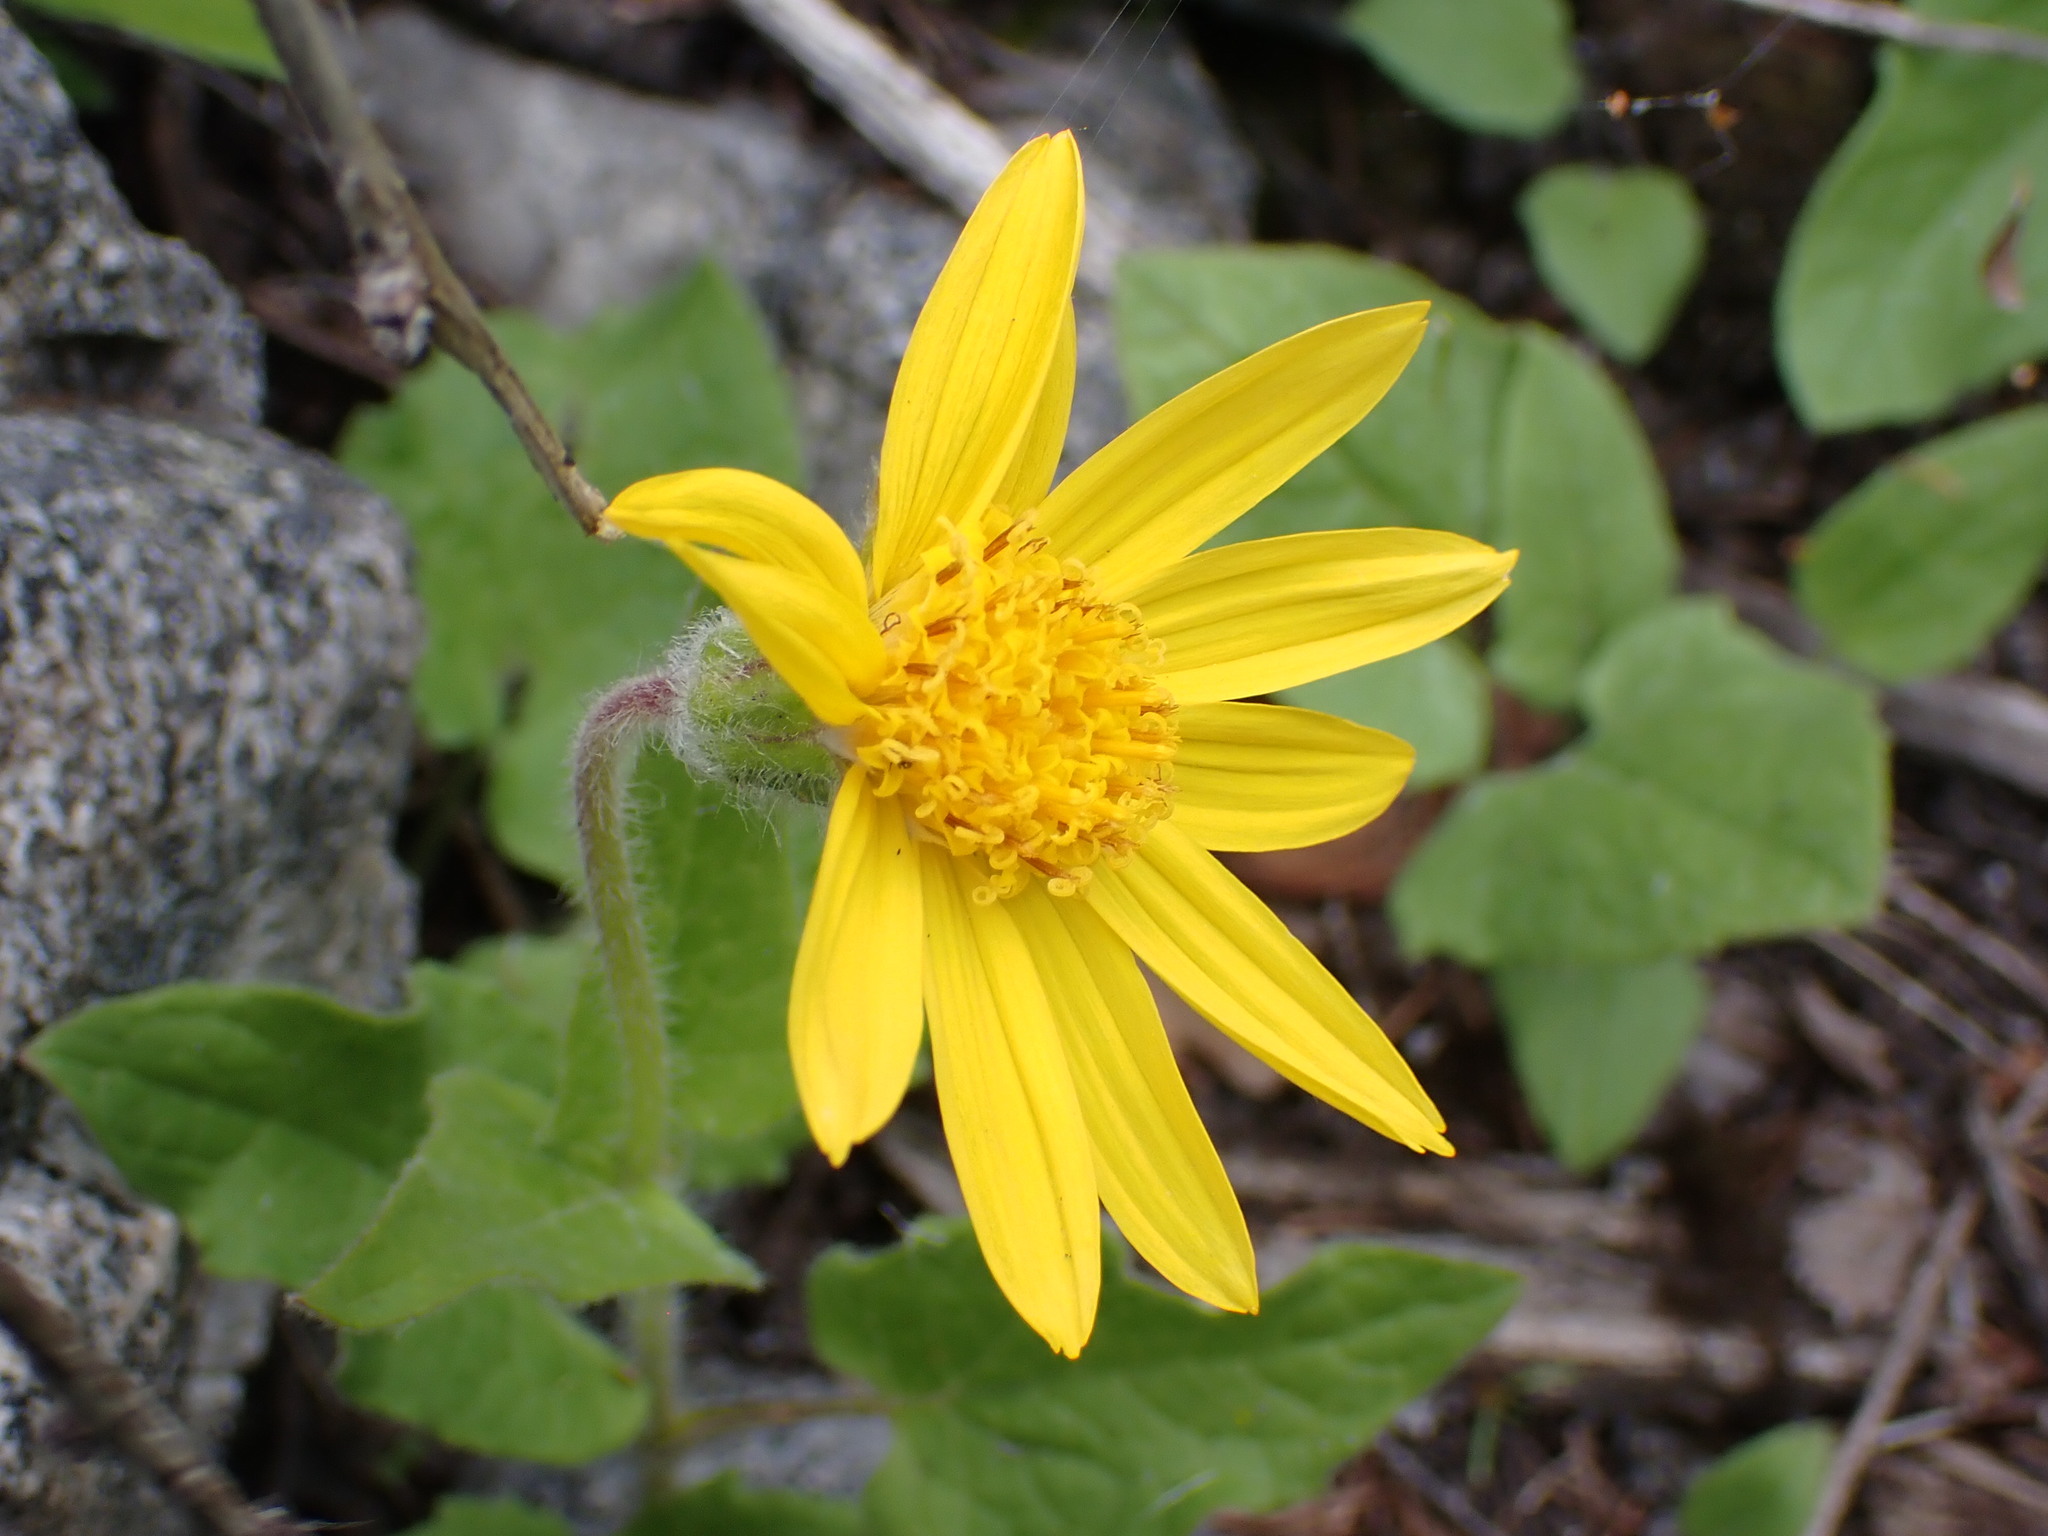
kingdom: Plantae
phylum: Tracheophyta
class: Magnoliopsida
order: Asterales
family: Asteraceae
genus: Arnica
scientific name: Arnica cordifolia
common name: Heart-leaf arnica
